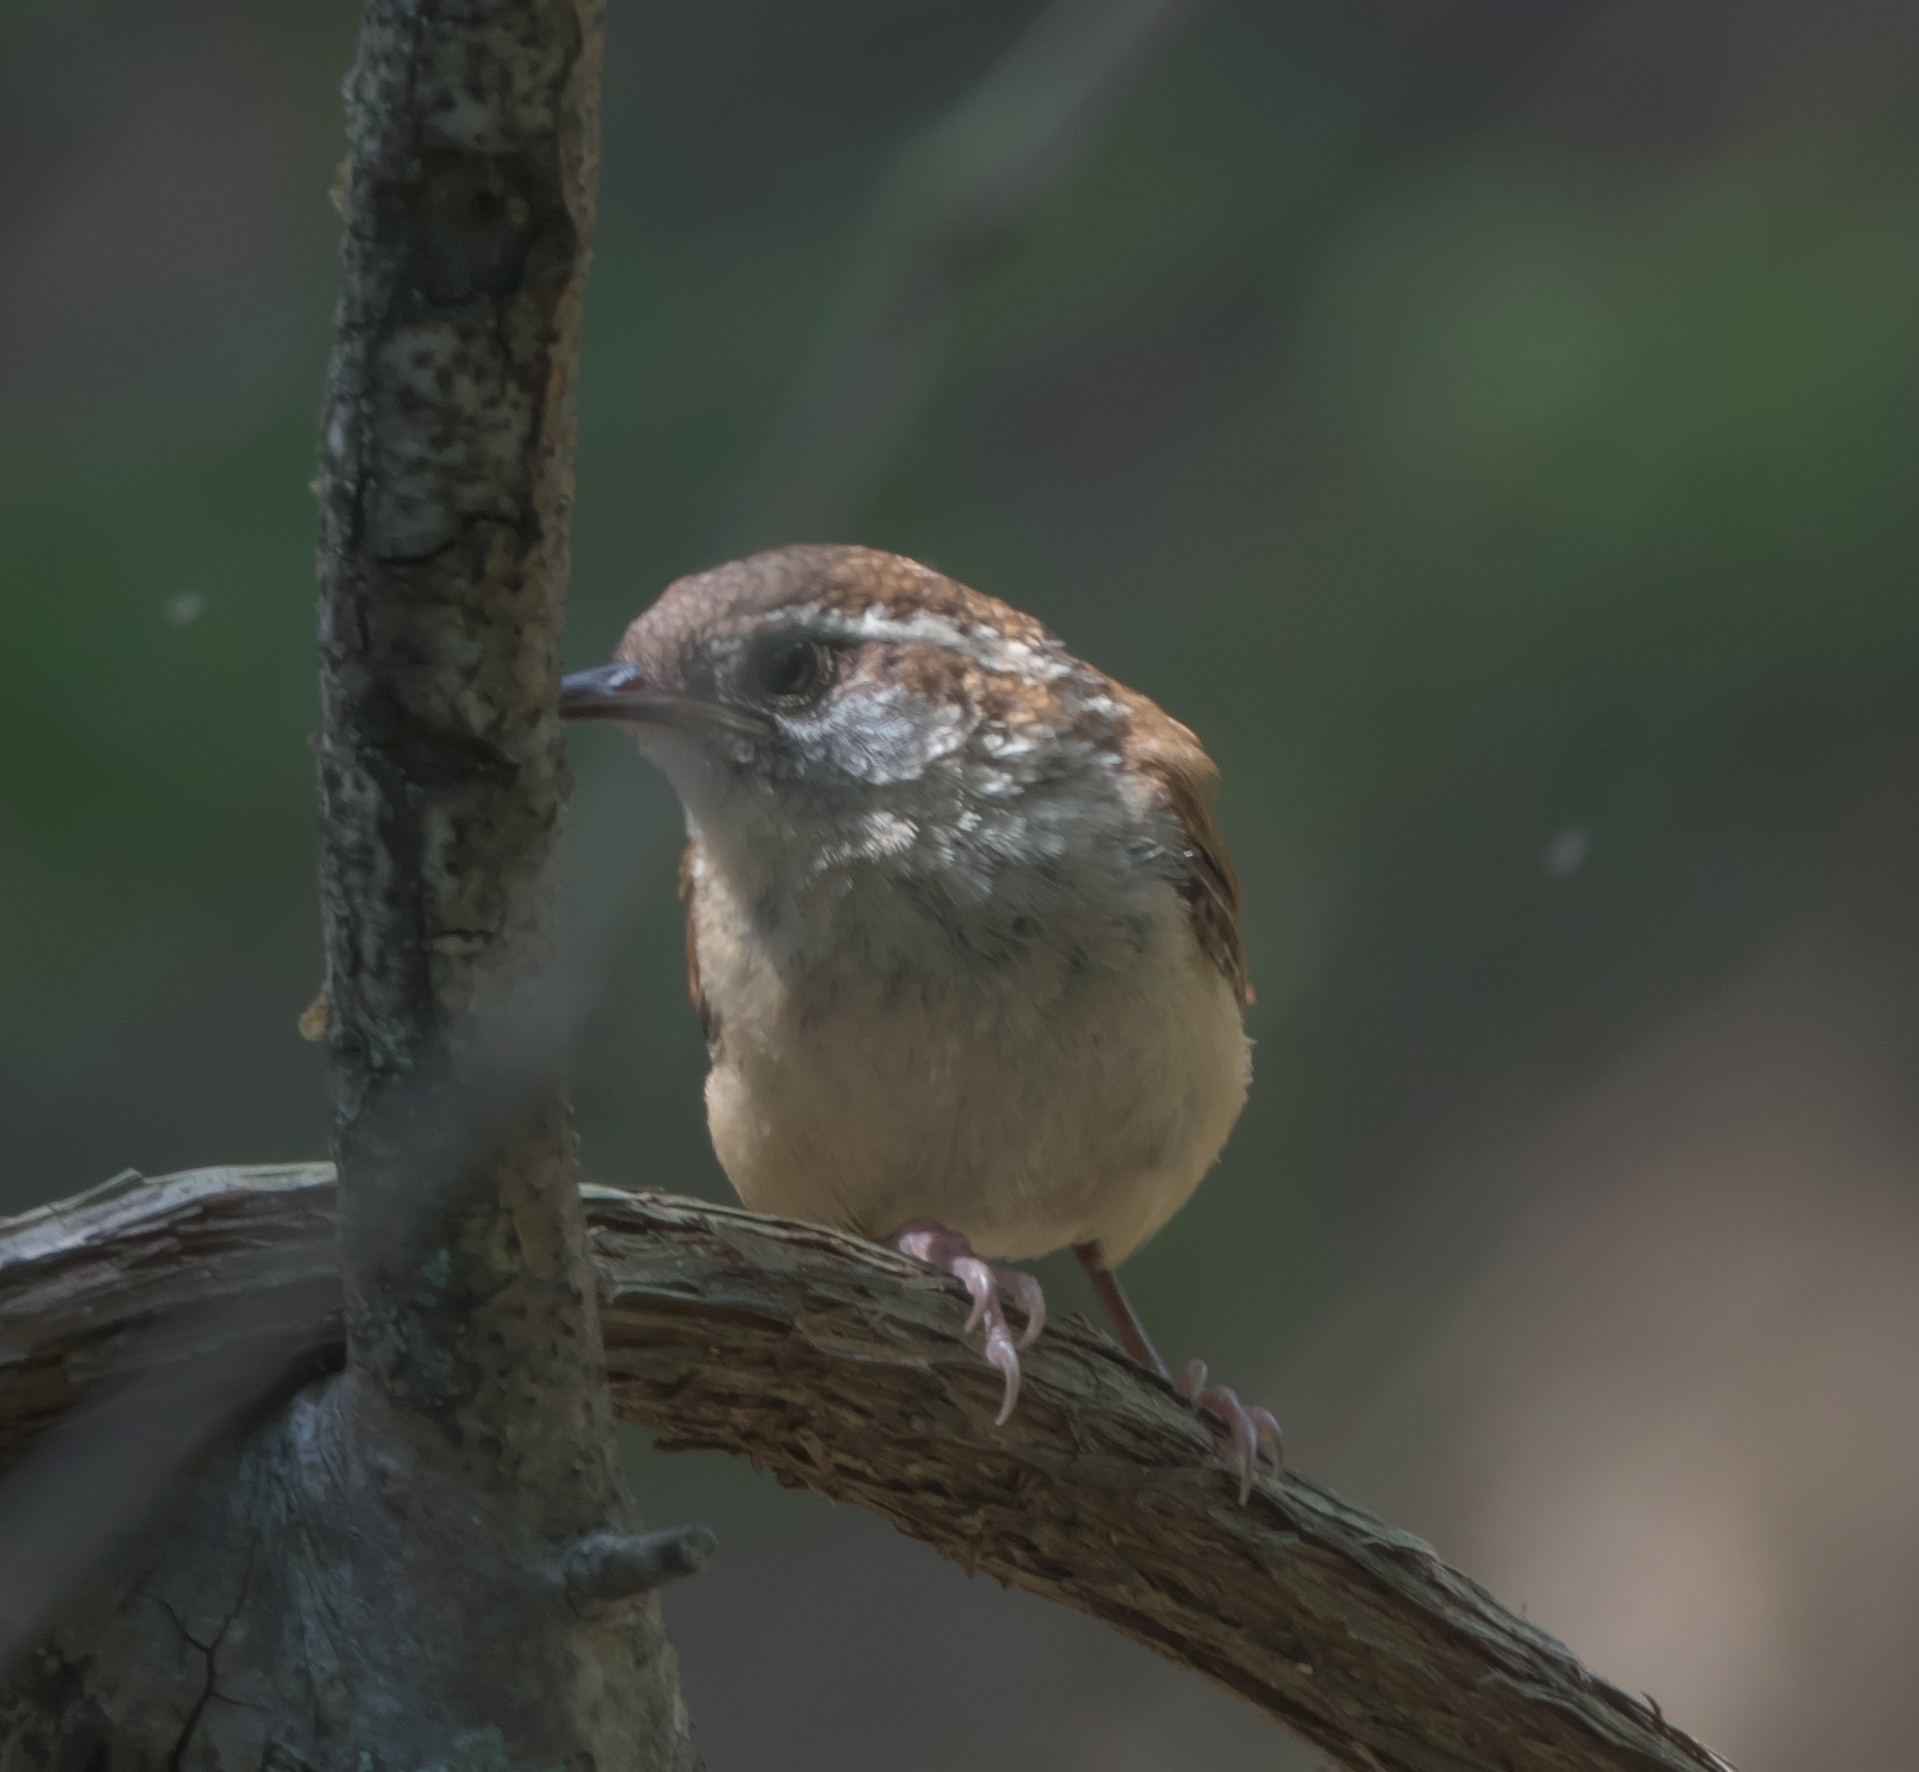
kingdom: Animalia
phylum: Chordata
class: Aves
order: Passeriformes
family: Troglodytidae
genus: Thryothorus
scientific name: Thryothorus ludovicianus
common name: Carolina wren
